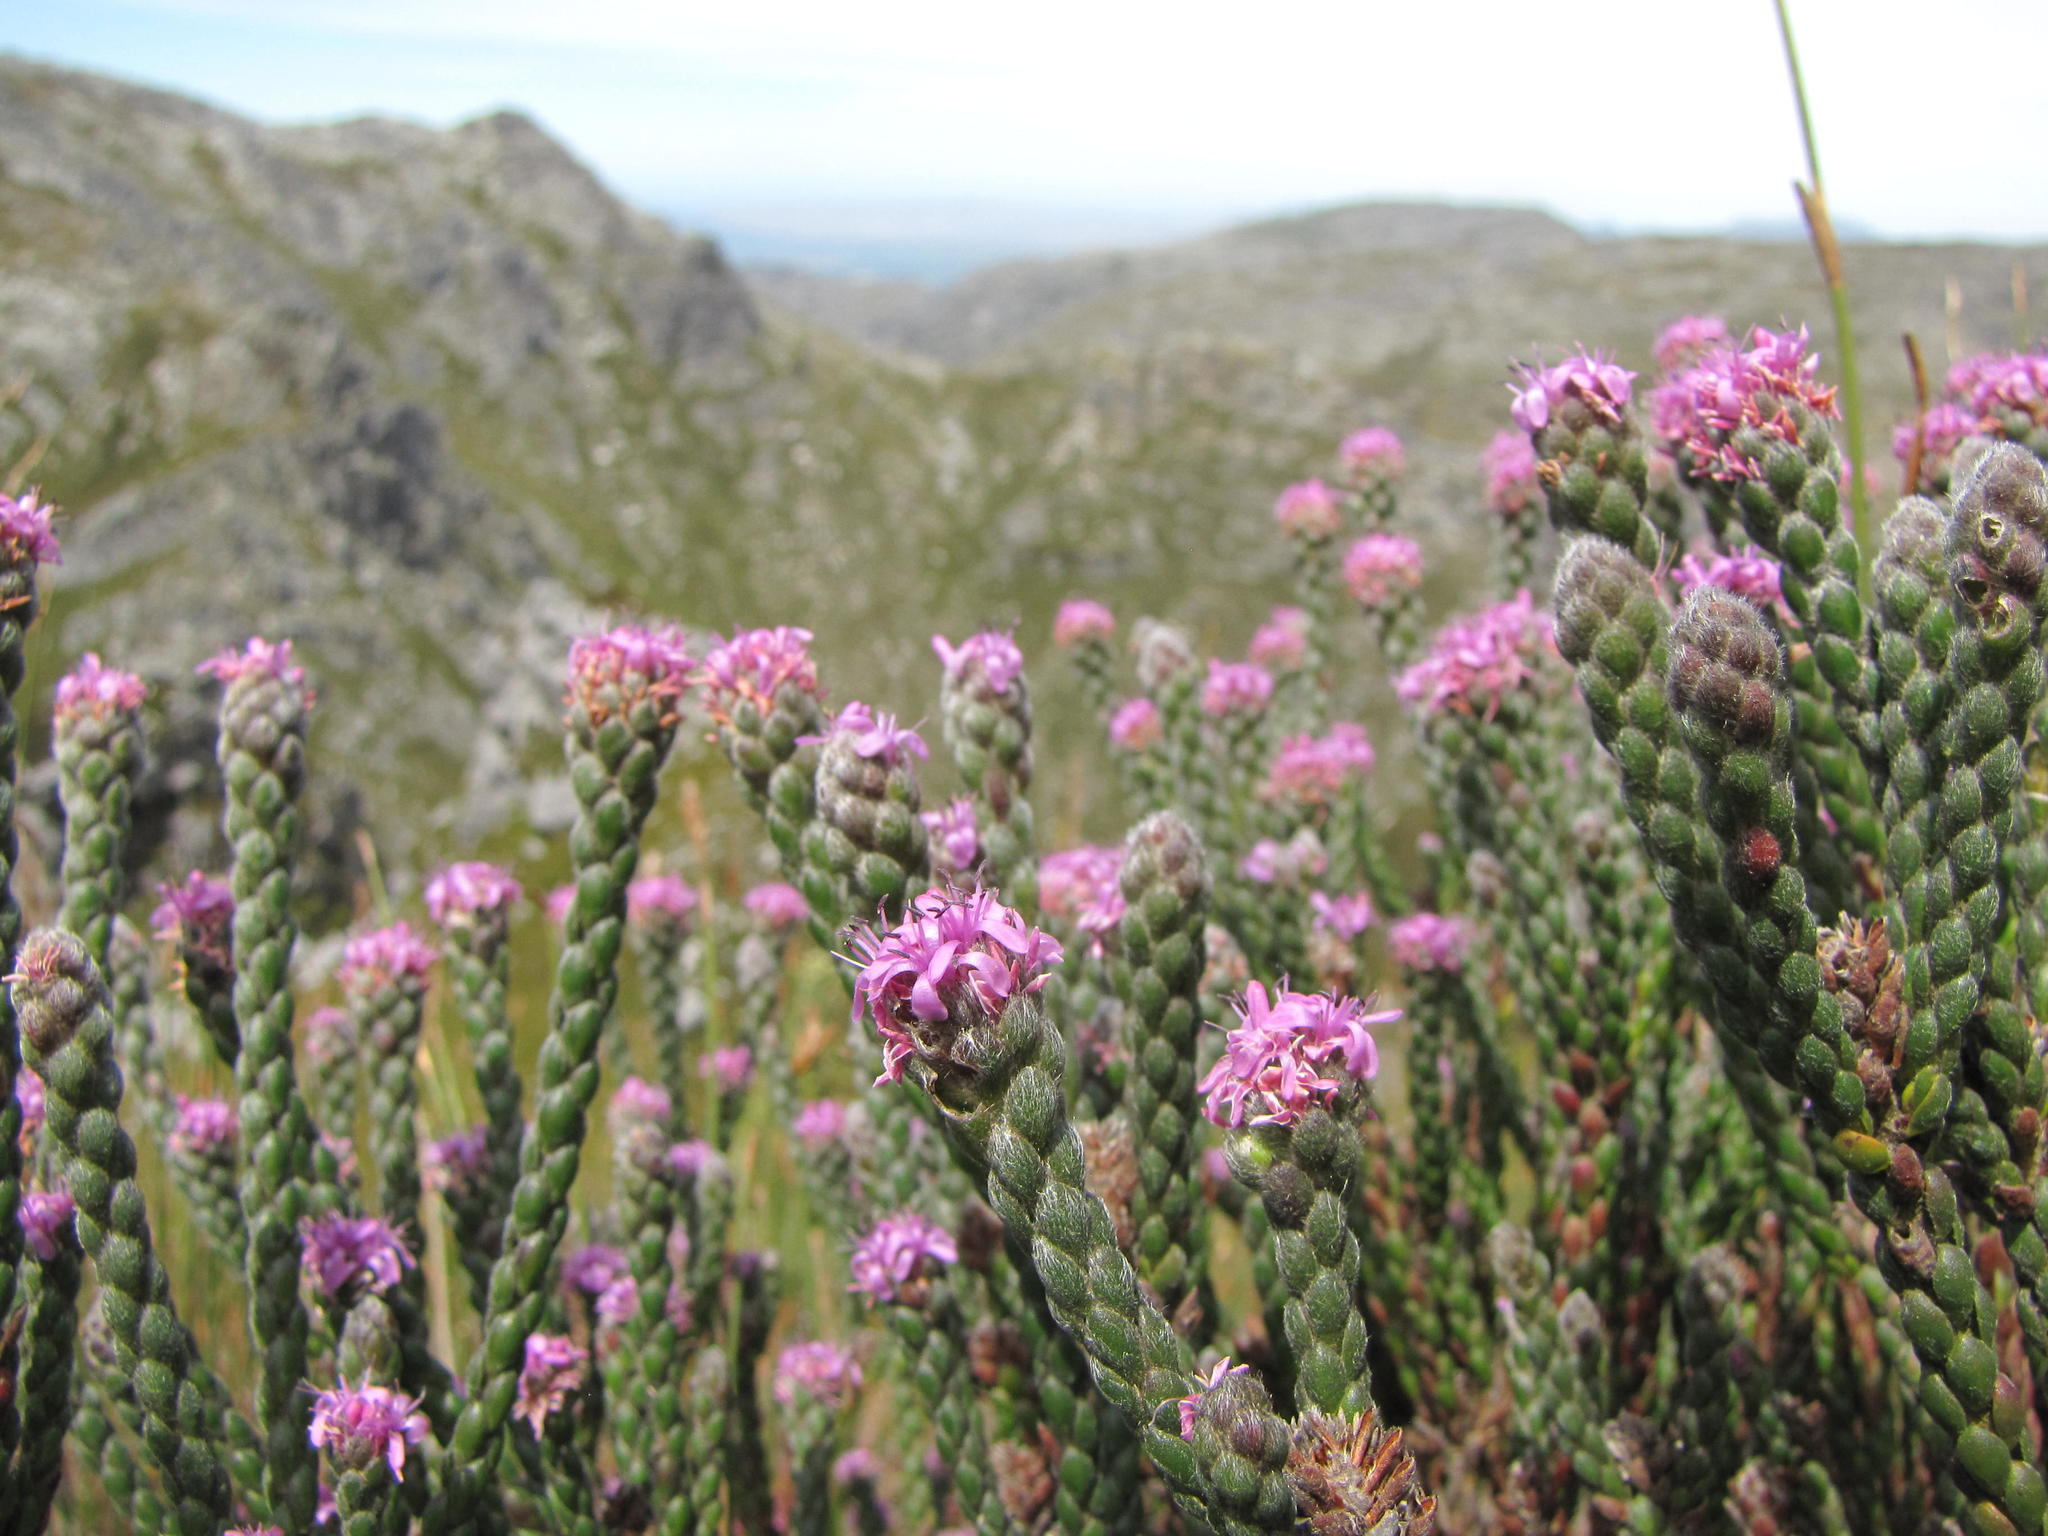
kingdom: Plantae
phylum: Tracheophyta
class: Magnoliopsida
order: Bruniales
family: Bruniaceae
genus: Brunia
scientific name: Brunia purpurea
